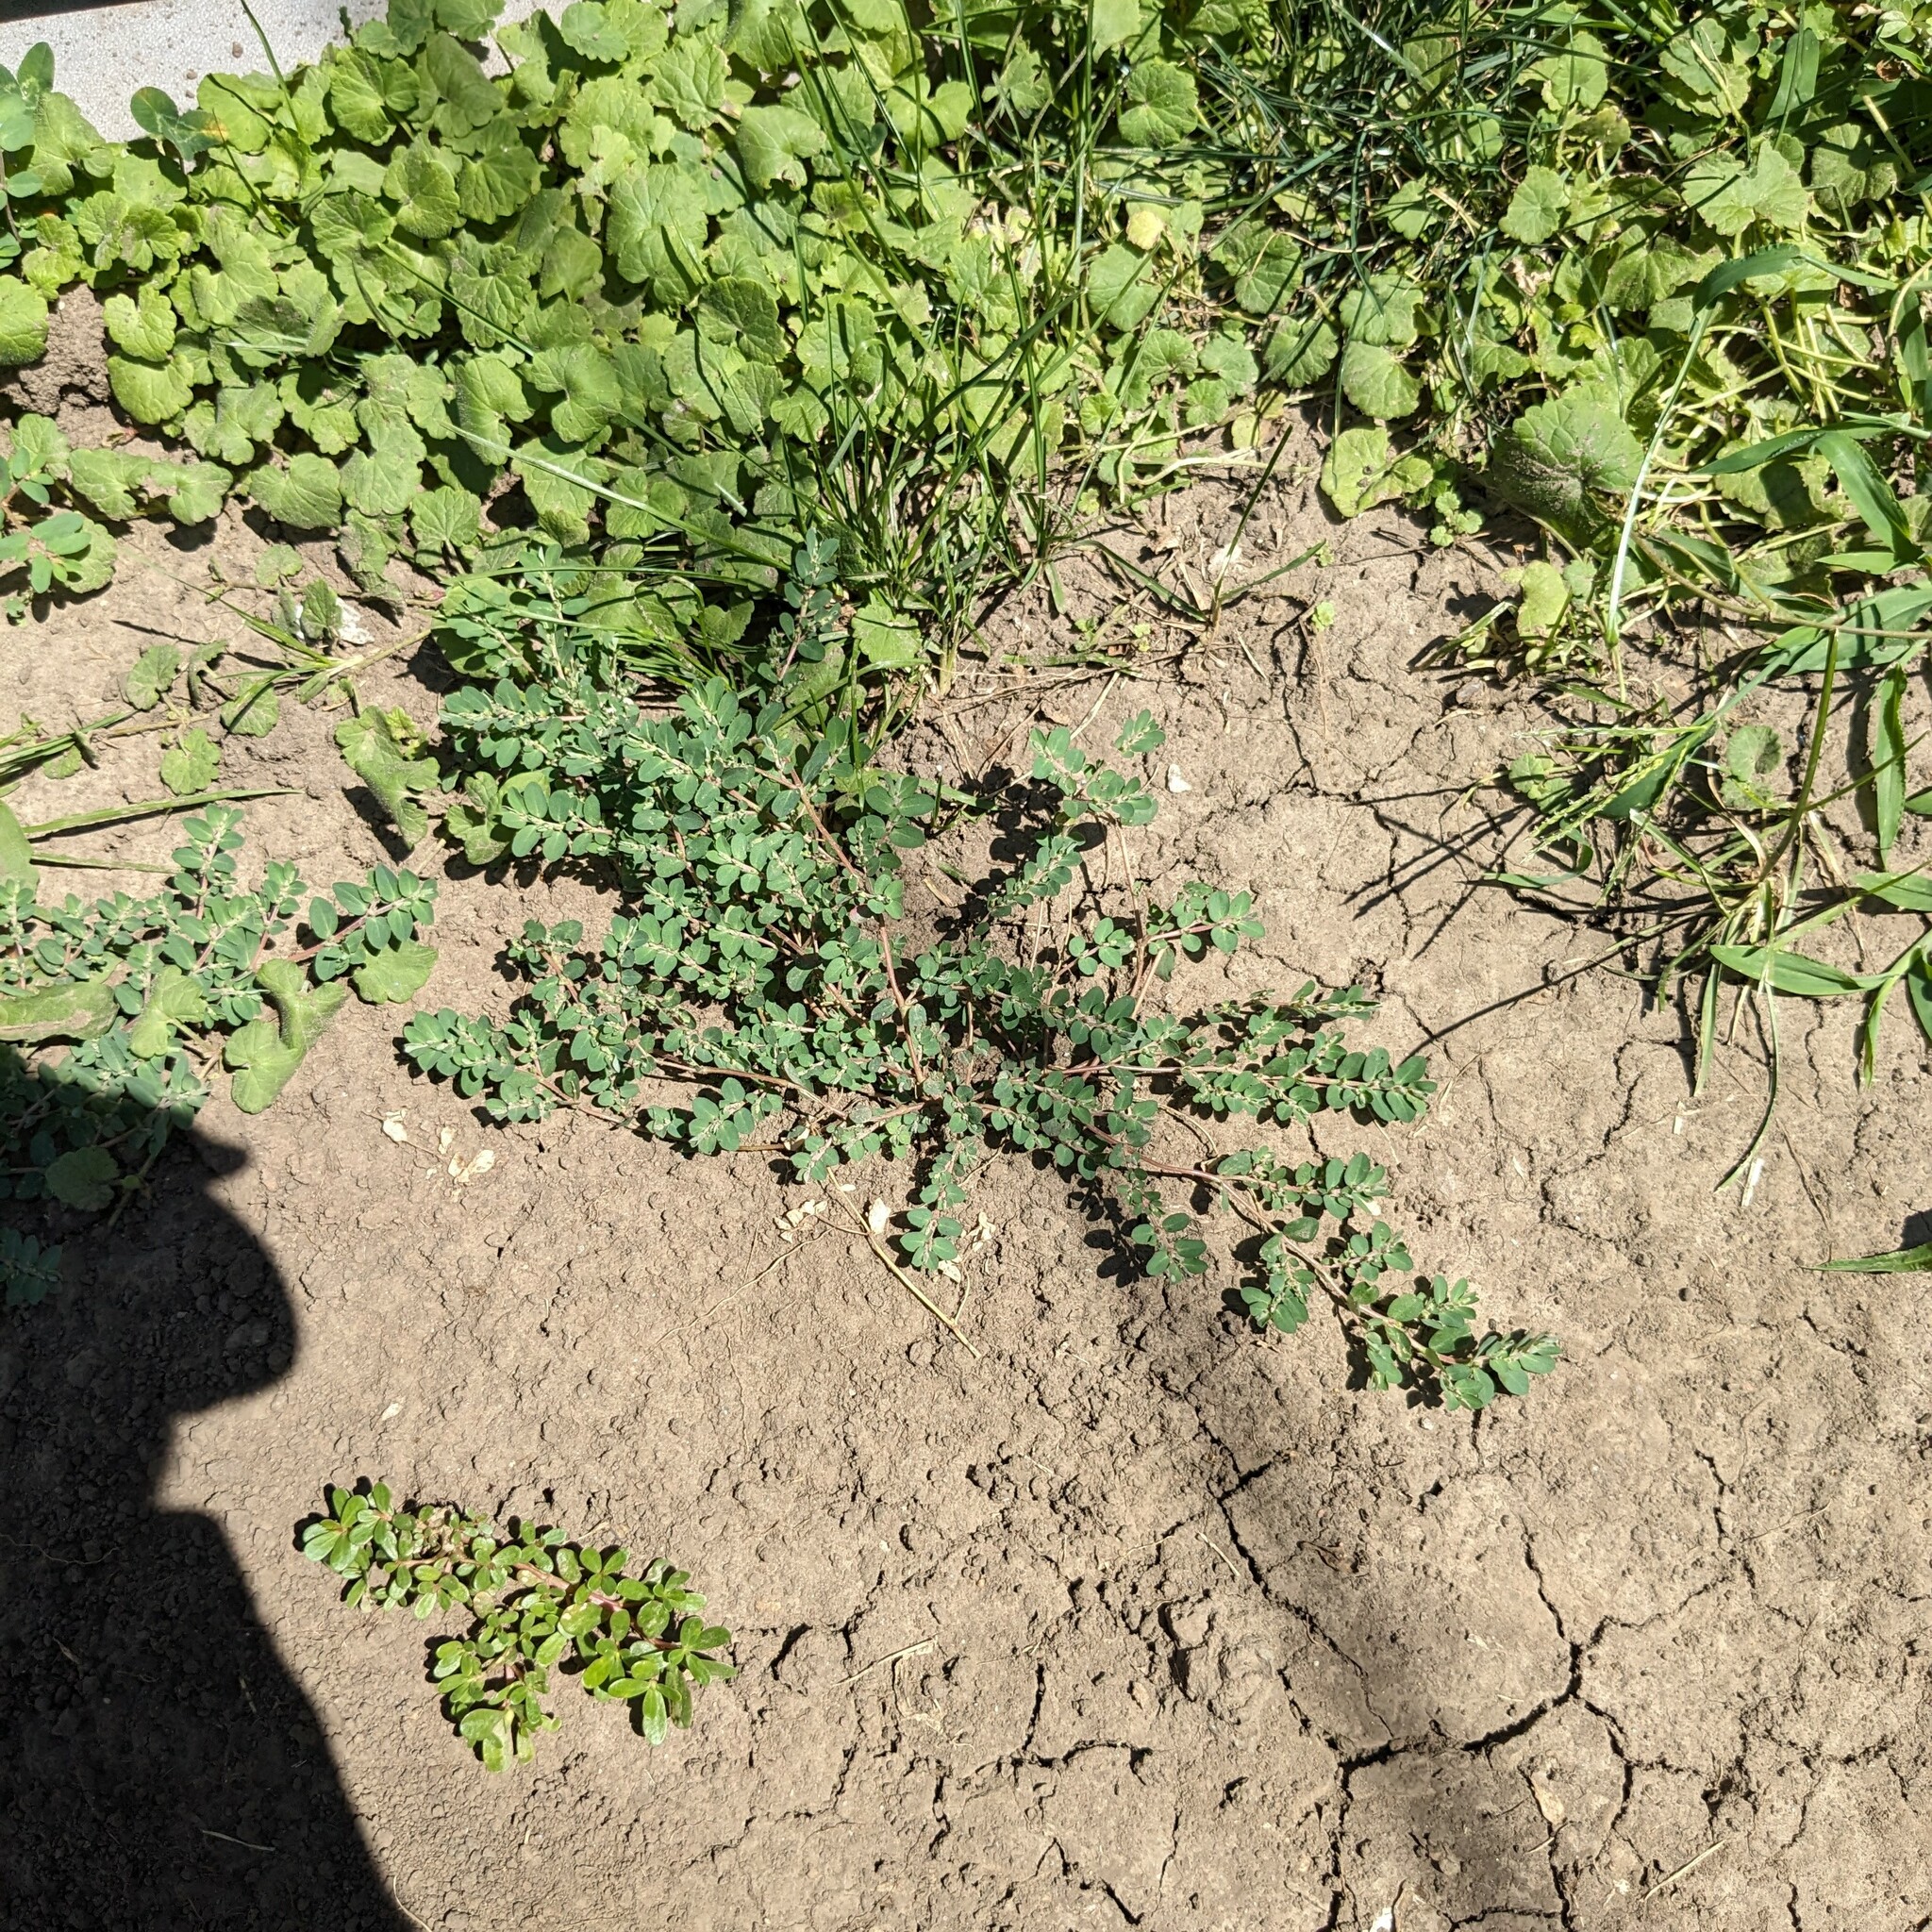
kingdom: Plantae
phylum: Tracheophyta
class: Magnoliopsida
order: Malpighiales
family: Euphorbiaceae
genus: Euphorbia
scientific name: Euphorbia prostrata
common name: Prostrate sandmat
